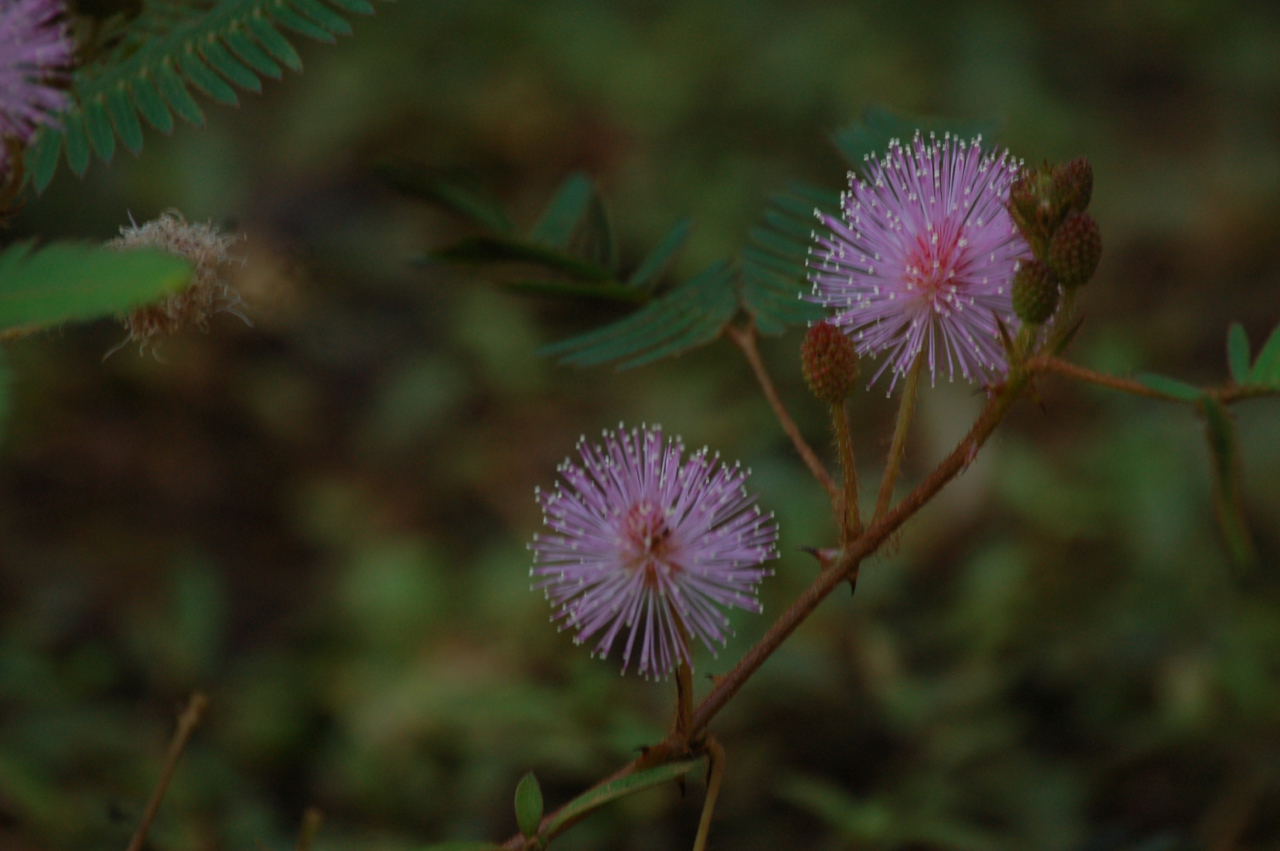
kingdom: Plantae
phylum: Tracheophyta
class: Magnoliopsida
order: Fabales
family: Fabaceae
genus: Mimosa
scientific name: Mimosa pudica
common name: Sensitive plant
